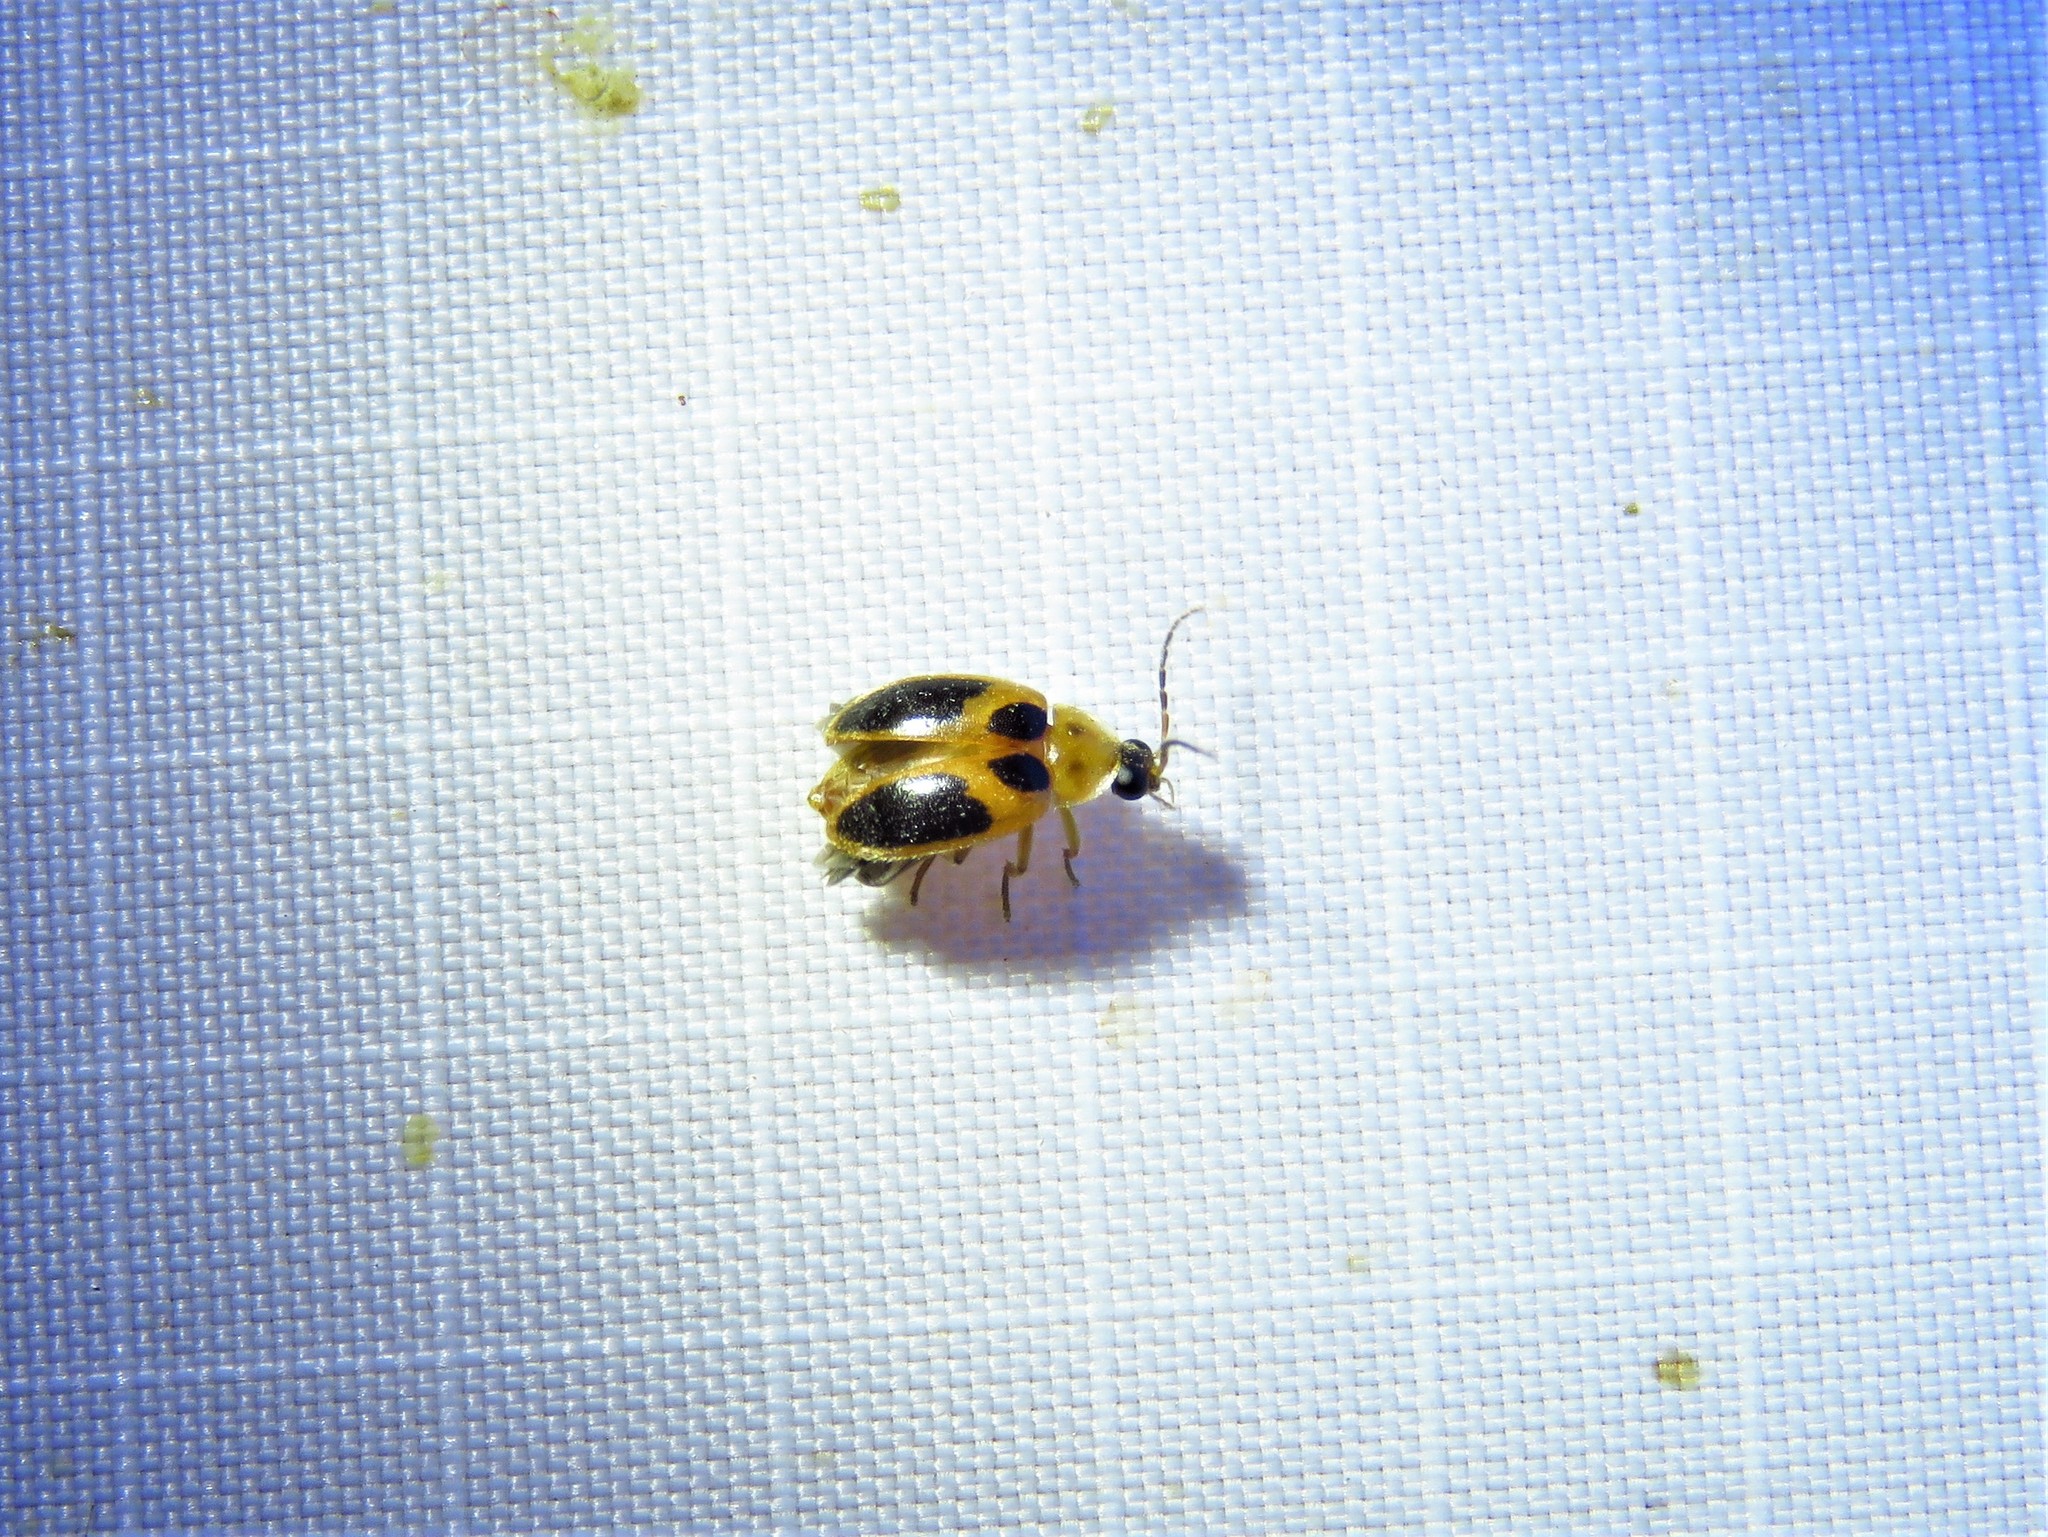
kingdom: Animalia
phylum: Arthropoda
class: Insecta
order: Coleoptera
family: Scirtidae
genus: Sacodes
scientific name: Sacodes pulchella
